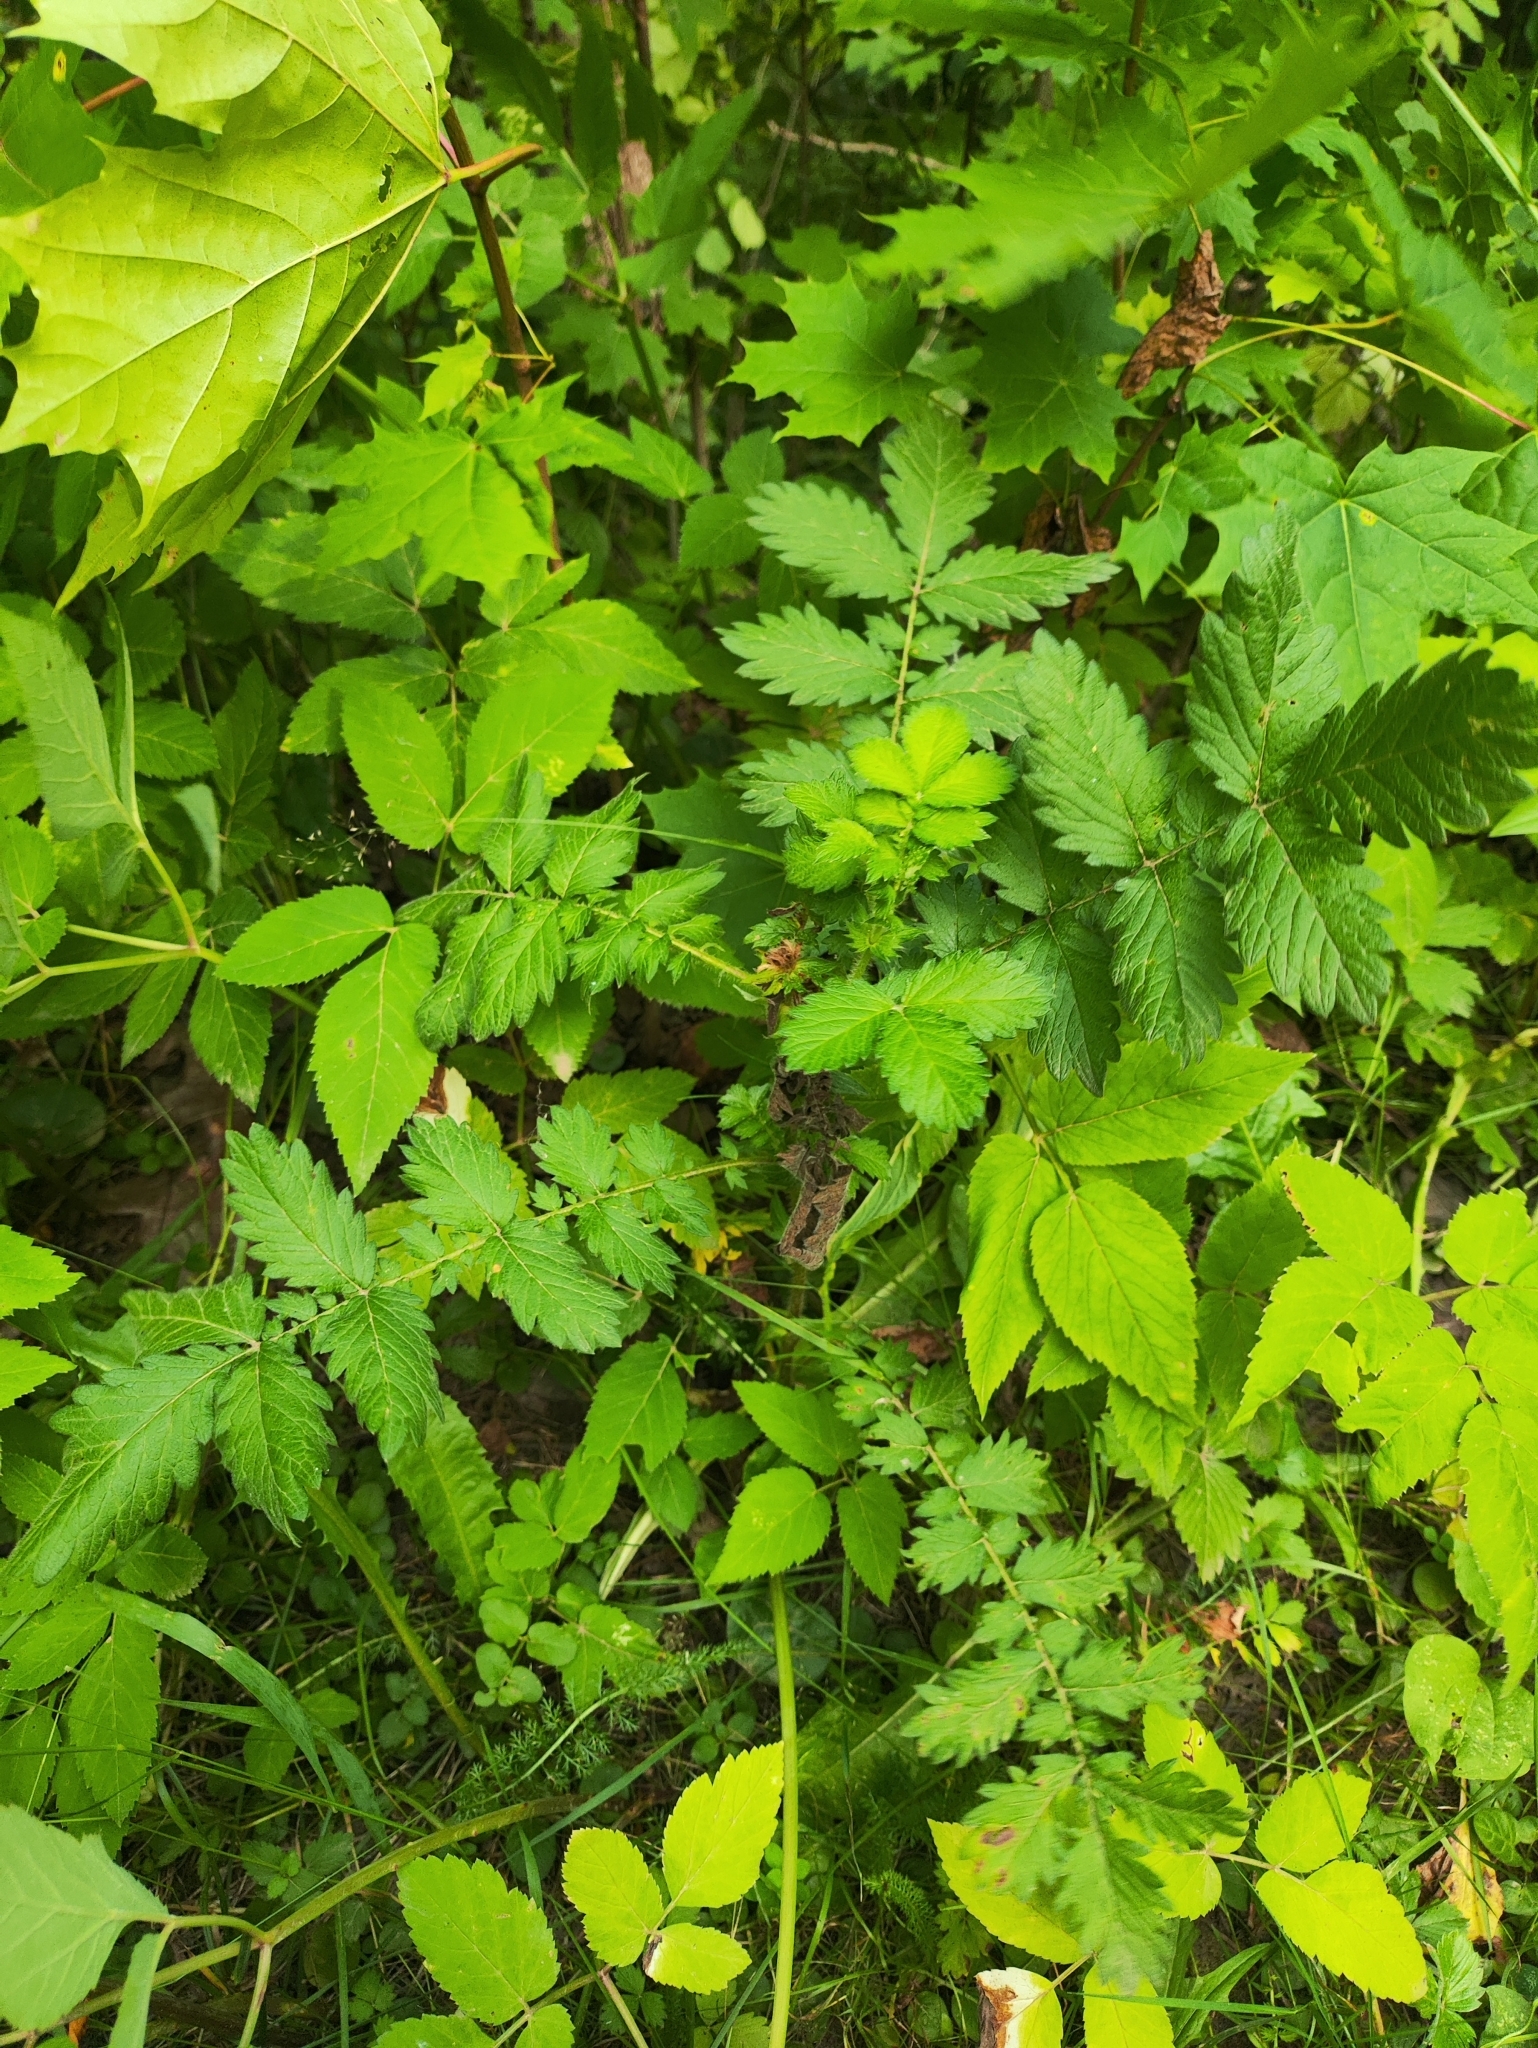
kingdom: Plantae
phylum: Tracheophyta
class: Magnoliopsida
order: Rosales
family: Rosaceae
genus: Agrimonia
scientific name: Agrimonia eupatoria
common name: Agrimony
